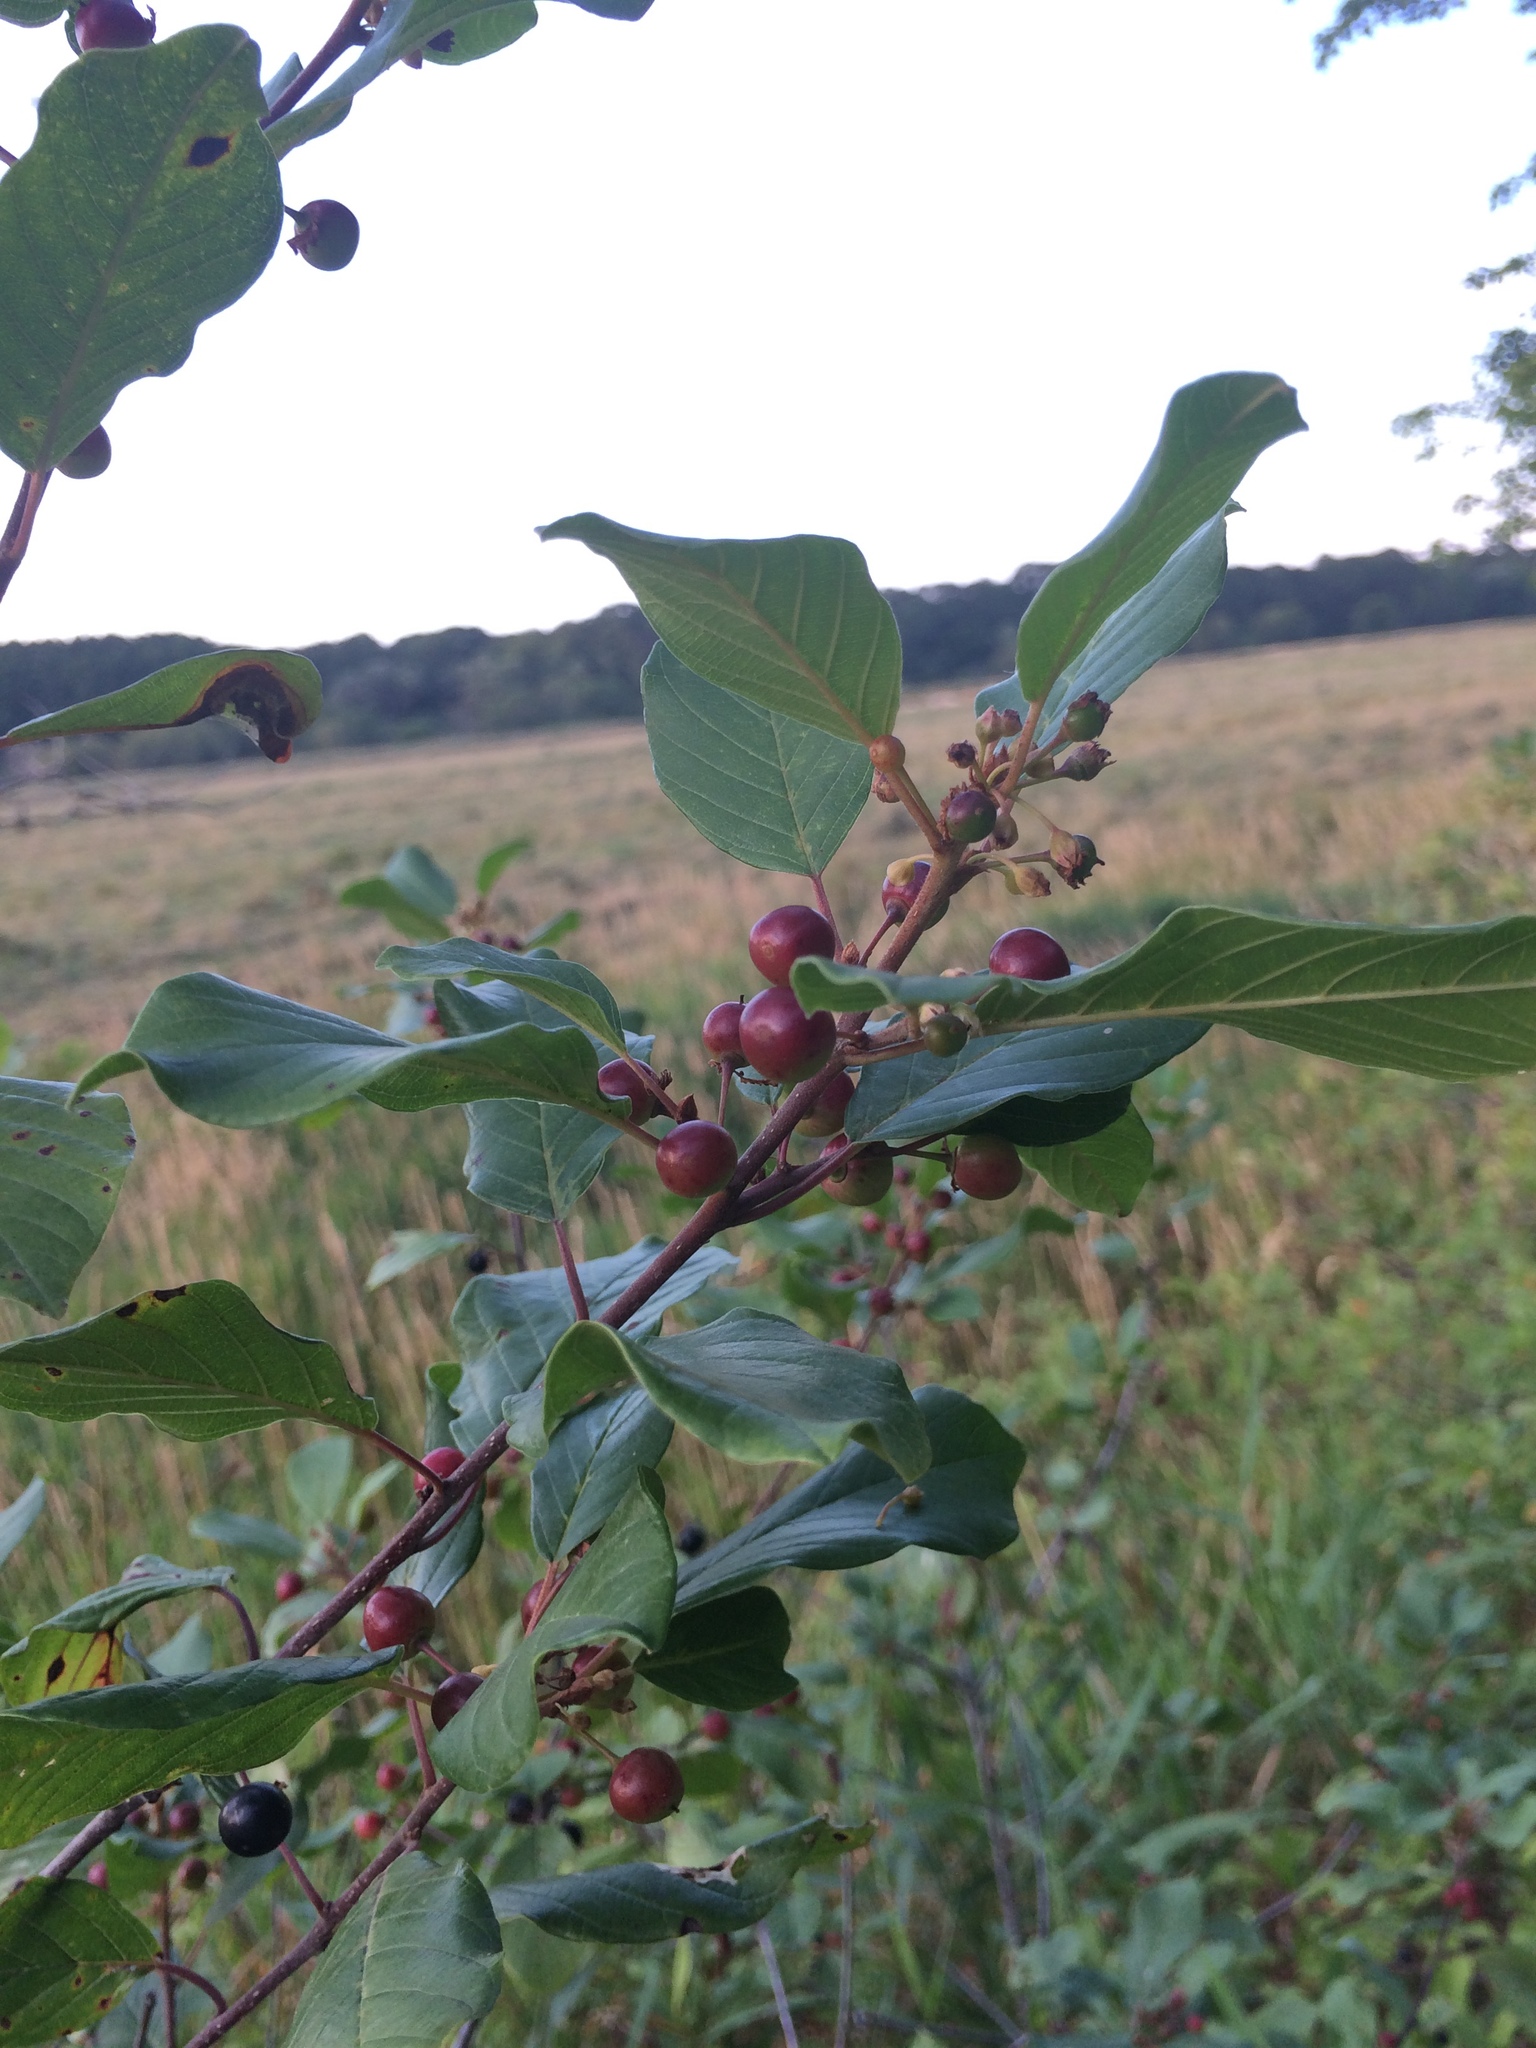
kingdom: Plantae
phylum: Tracheophyta
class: Magnoliopsida
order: Rosales
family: Rhamnaceae
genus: Frangula
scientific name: Frangula alnus
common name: Alder buckthorn
